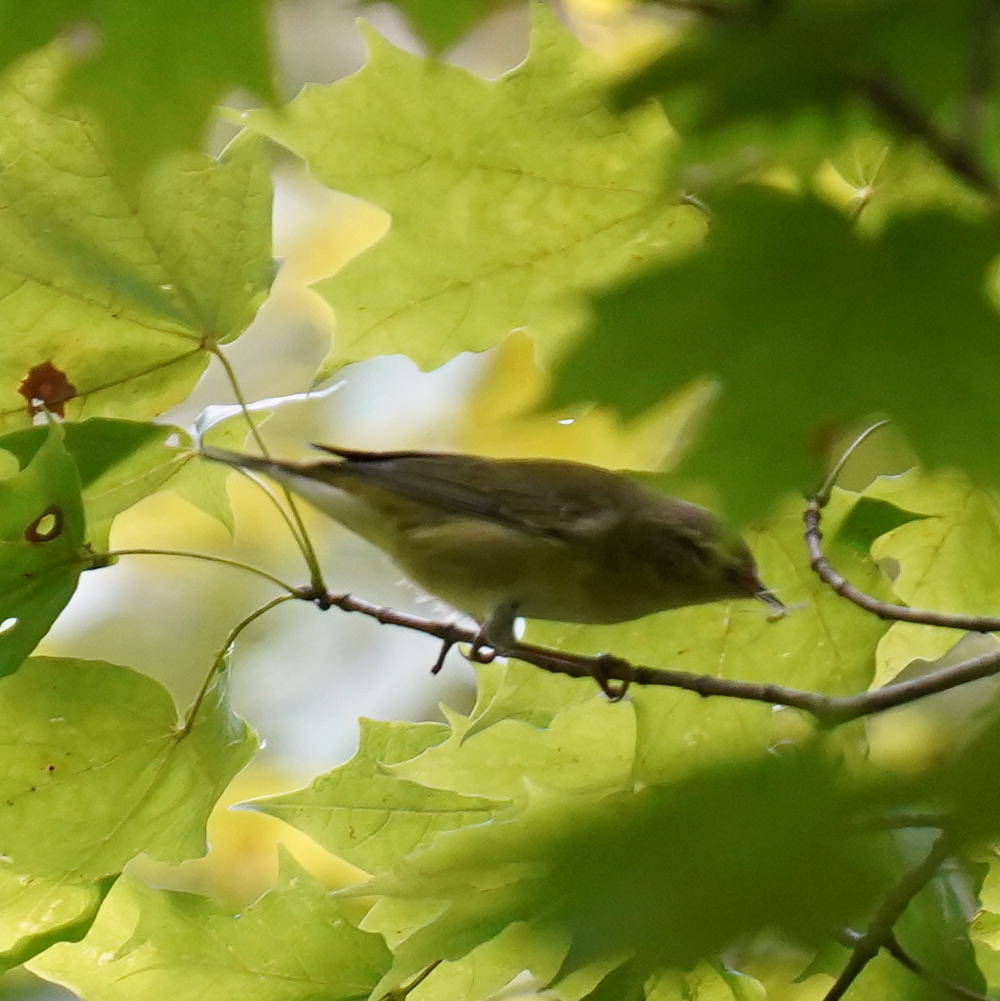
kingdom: Animalia
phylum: Chordata
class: Aves
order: Passeriformes
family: Parulidae
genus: Leiothlypis
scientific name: Leiothlypis peregrina
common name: Tennessee warbler
